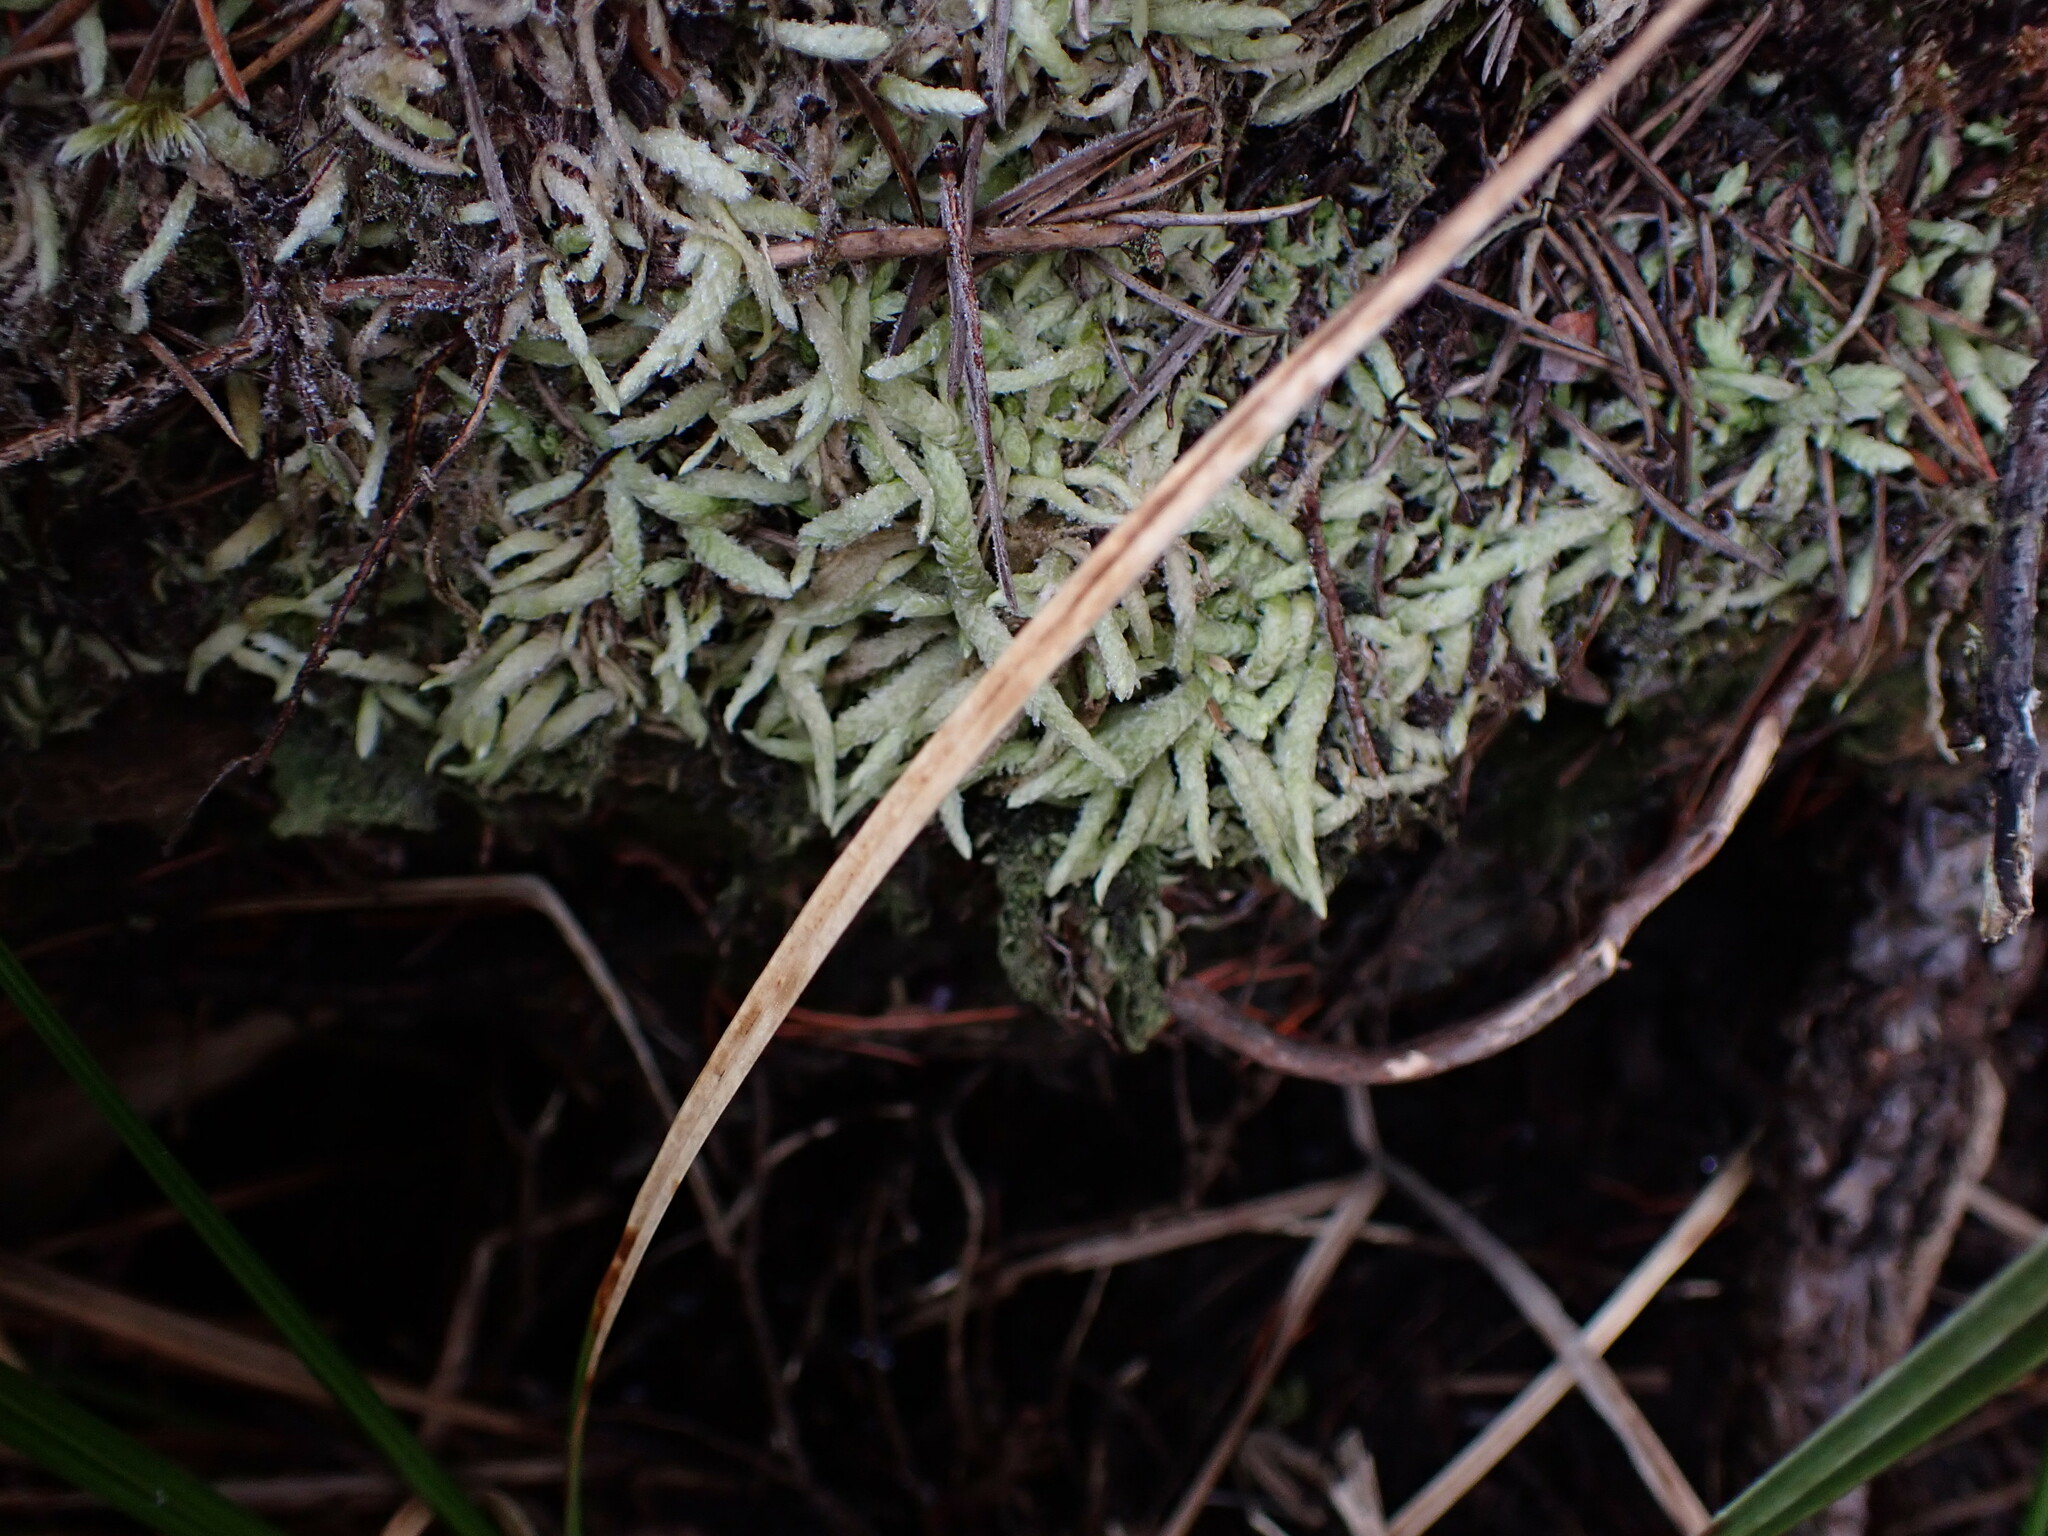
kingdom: Plantae
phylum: Bryophyta
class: Bryopsida
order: Hypnales
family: Plagiotheciaceae
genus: Plagiothecium
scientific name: Plagiothecium undulatum
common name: Waved silk-moss
